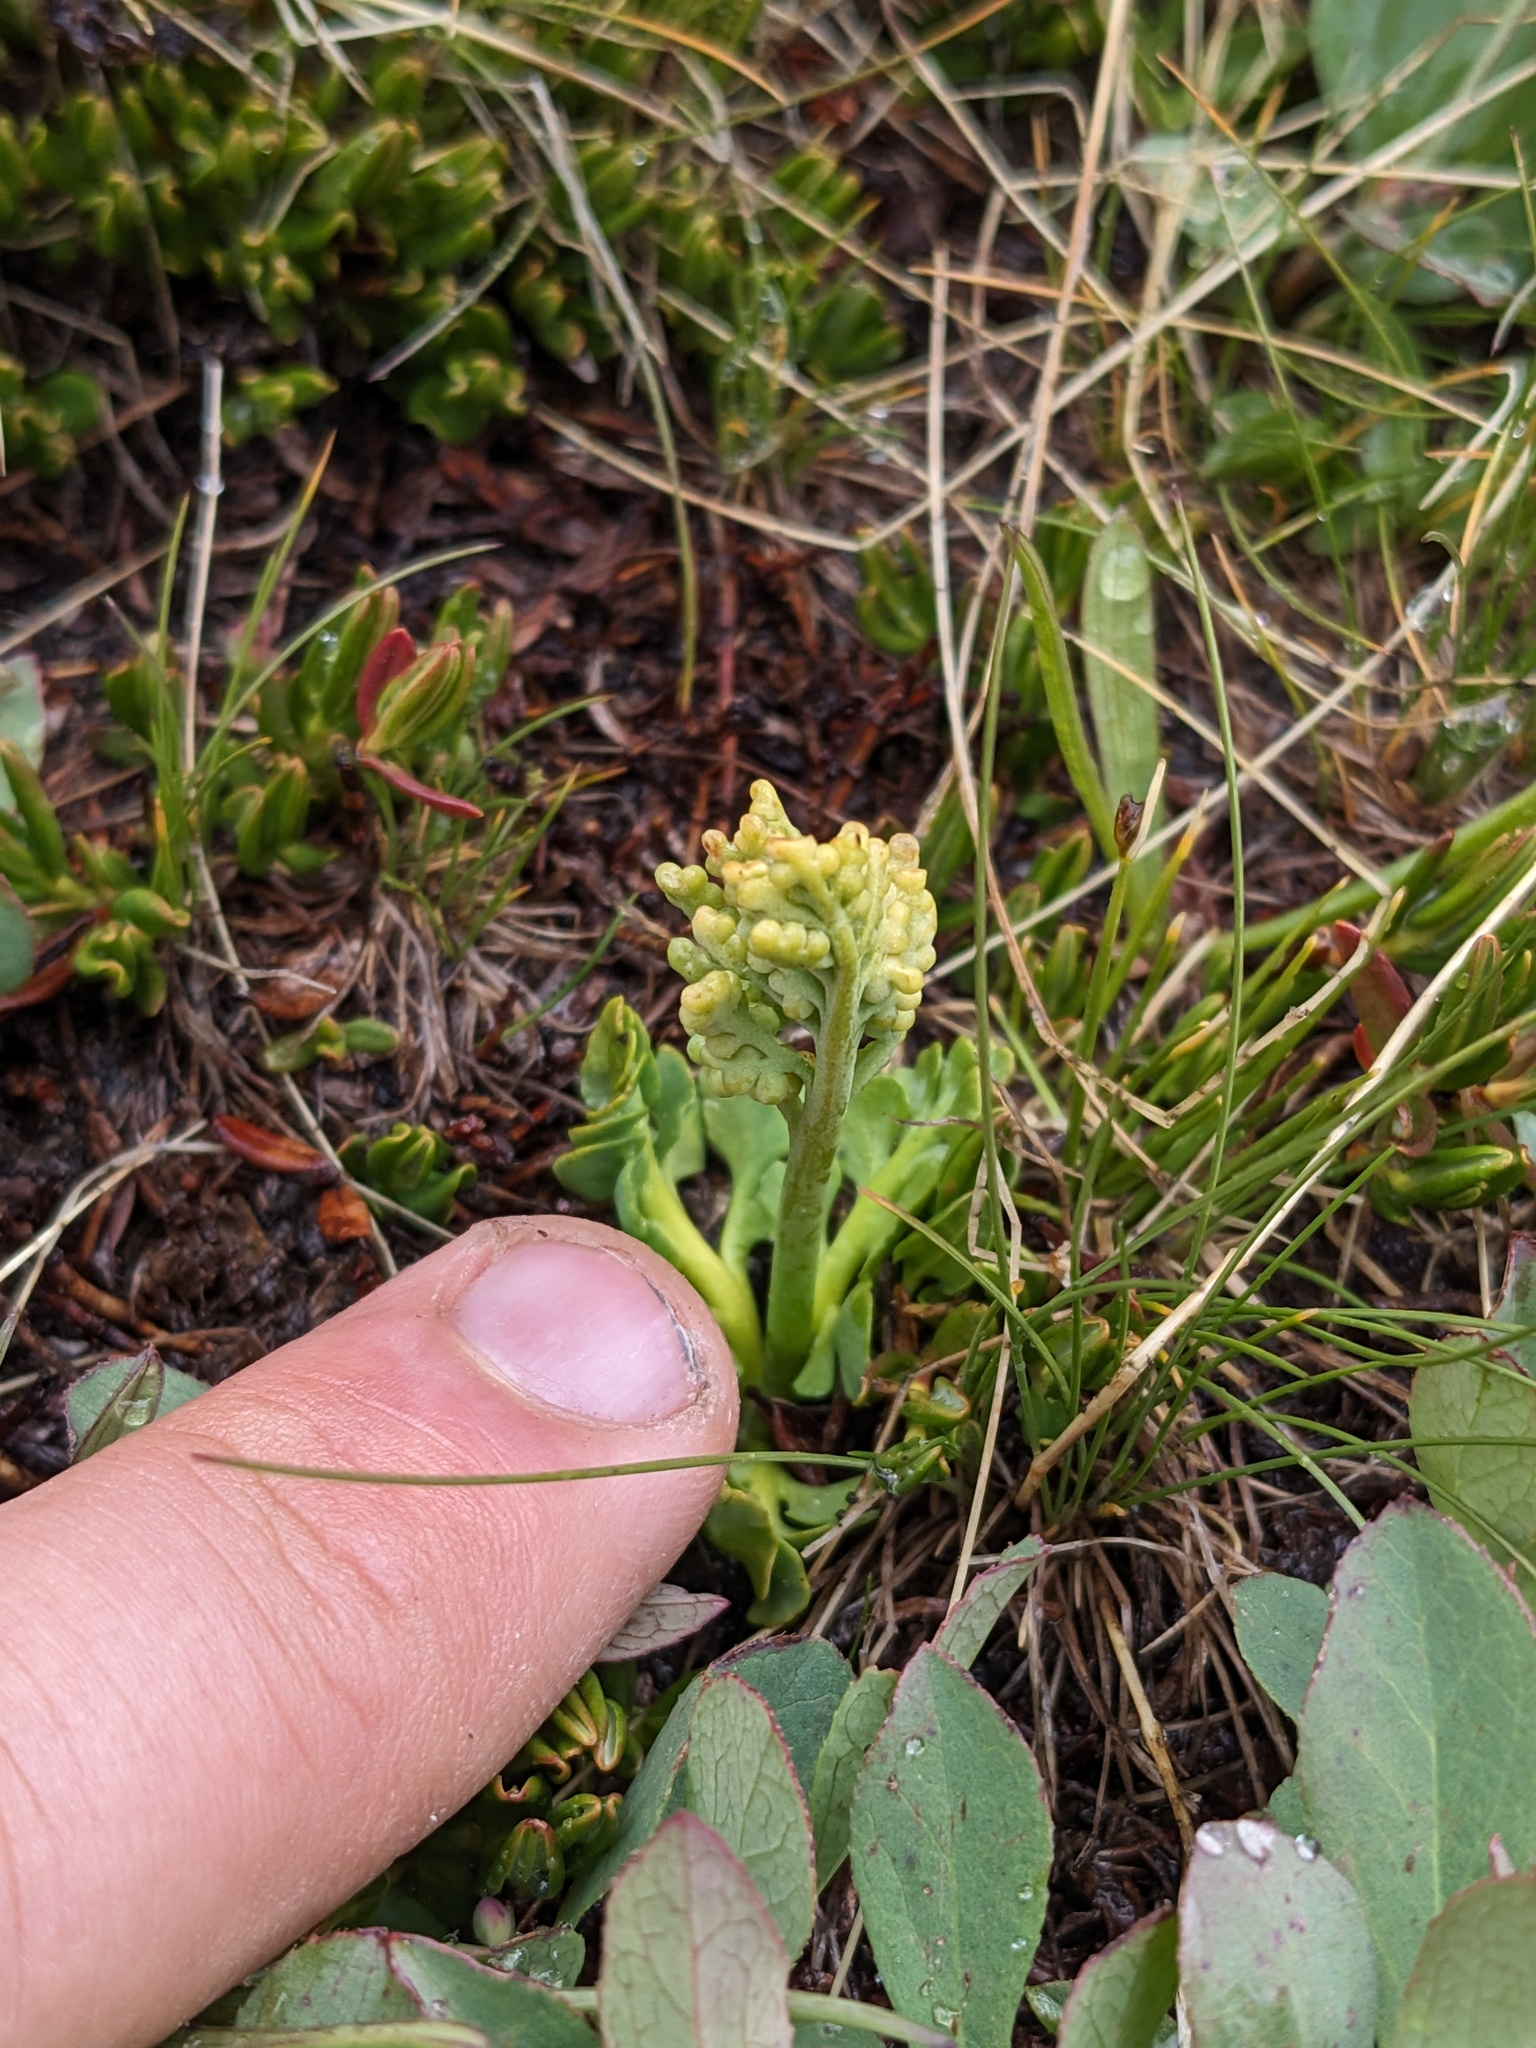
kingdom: Plantae
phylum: Tracheophyta
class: Polypodiopsida
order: Ophioglossales
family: Ophioglossaceae
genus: Botrychium
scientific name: Botrychium simplex
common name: Least moonwort
